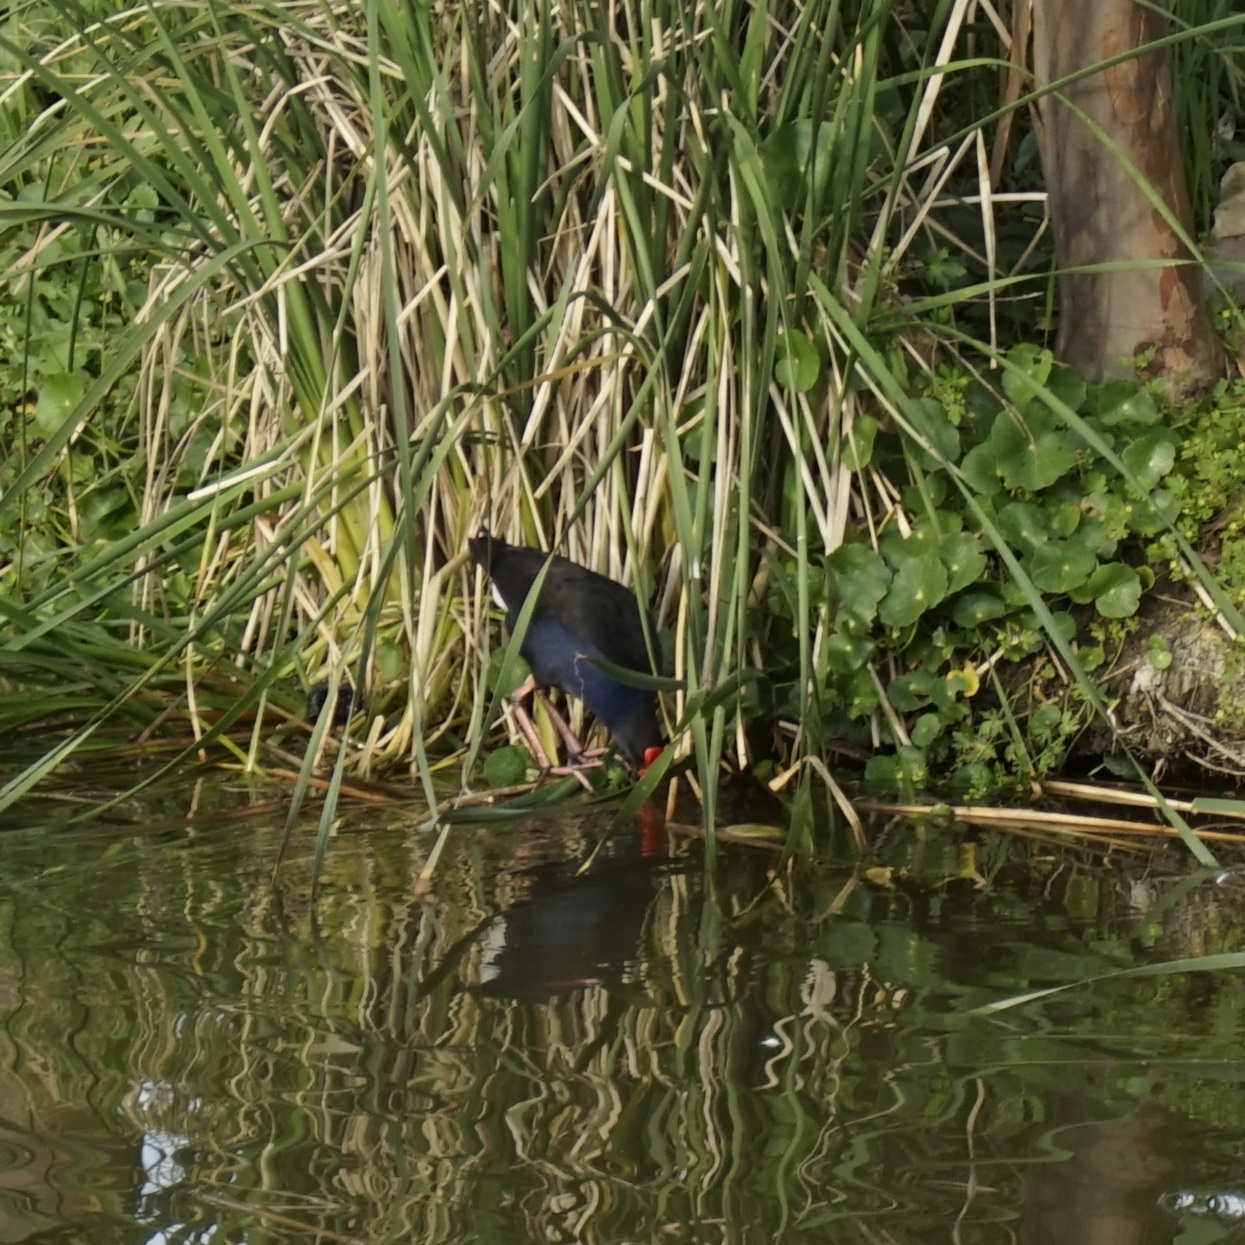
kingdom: Animalia
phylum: Chordata
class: Aves
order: Gruiformes
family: Rallidae
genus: Porphyrio
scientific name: Porphyrio melanotus
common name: Australasian swamphen
